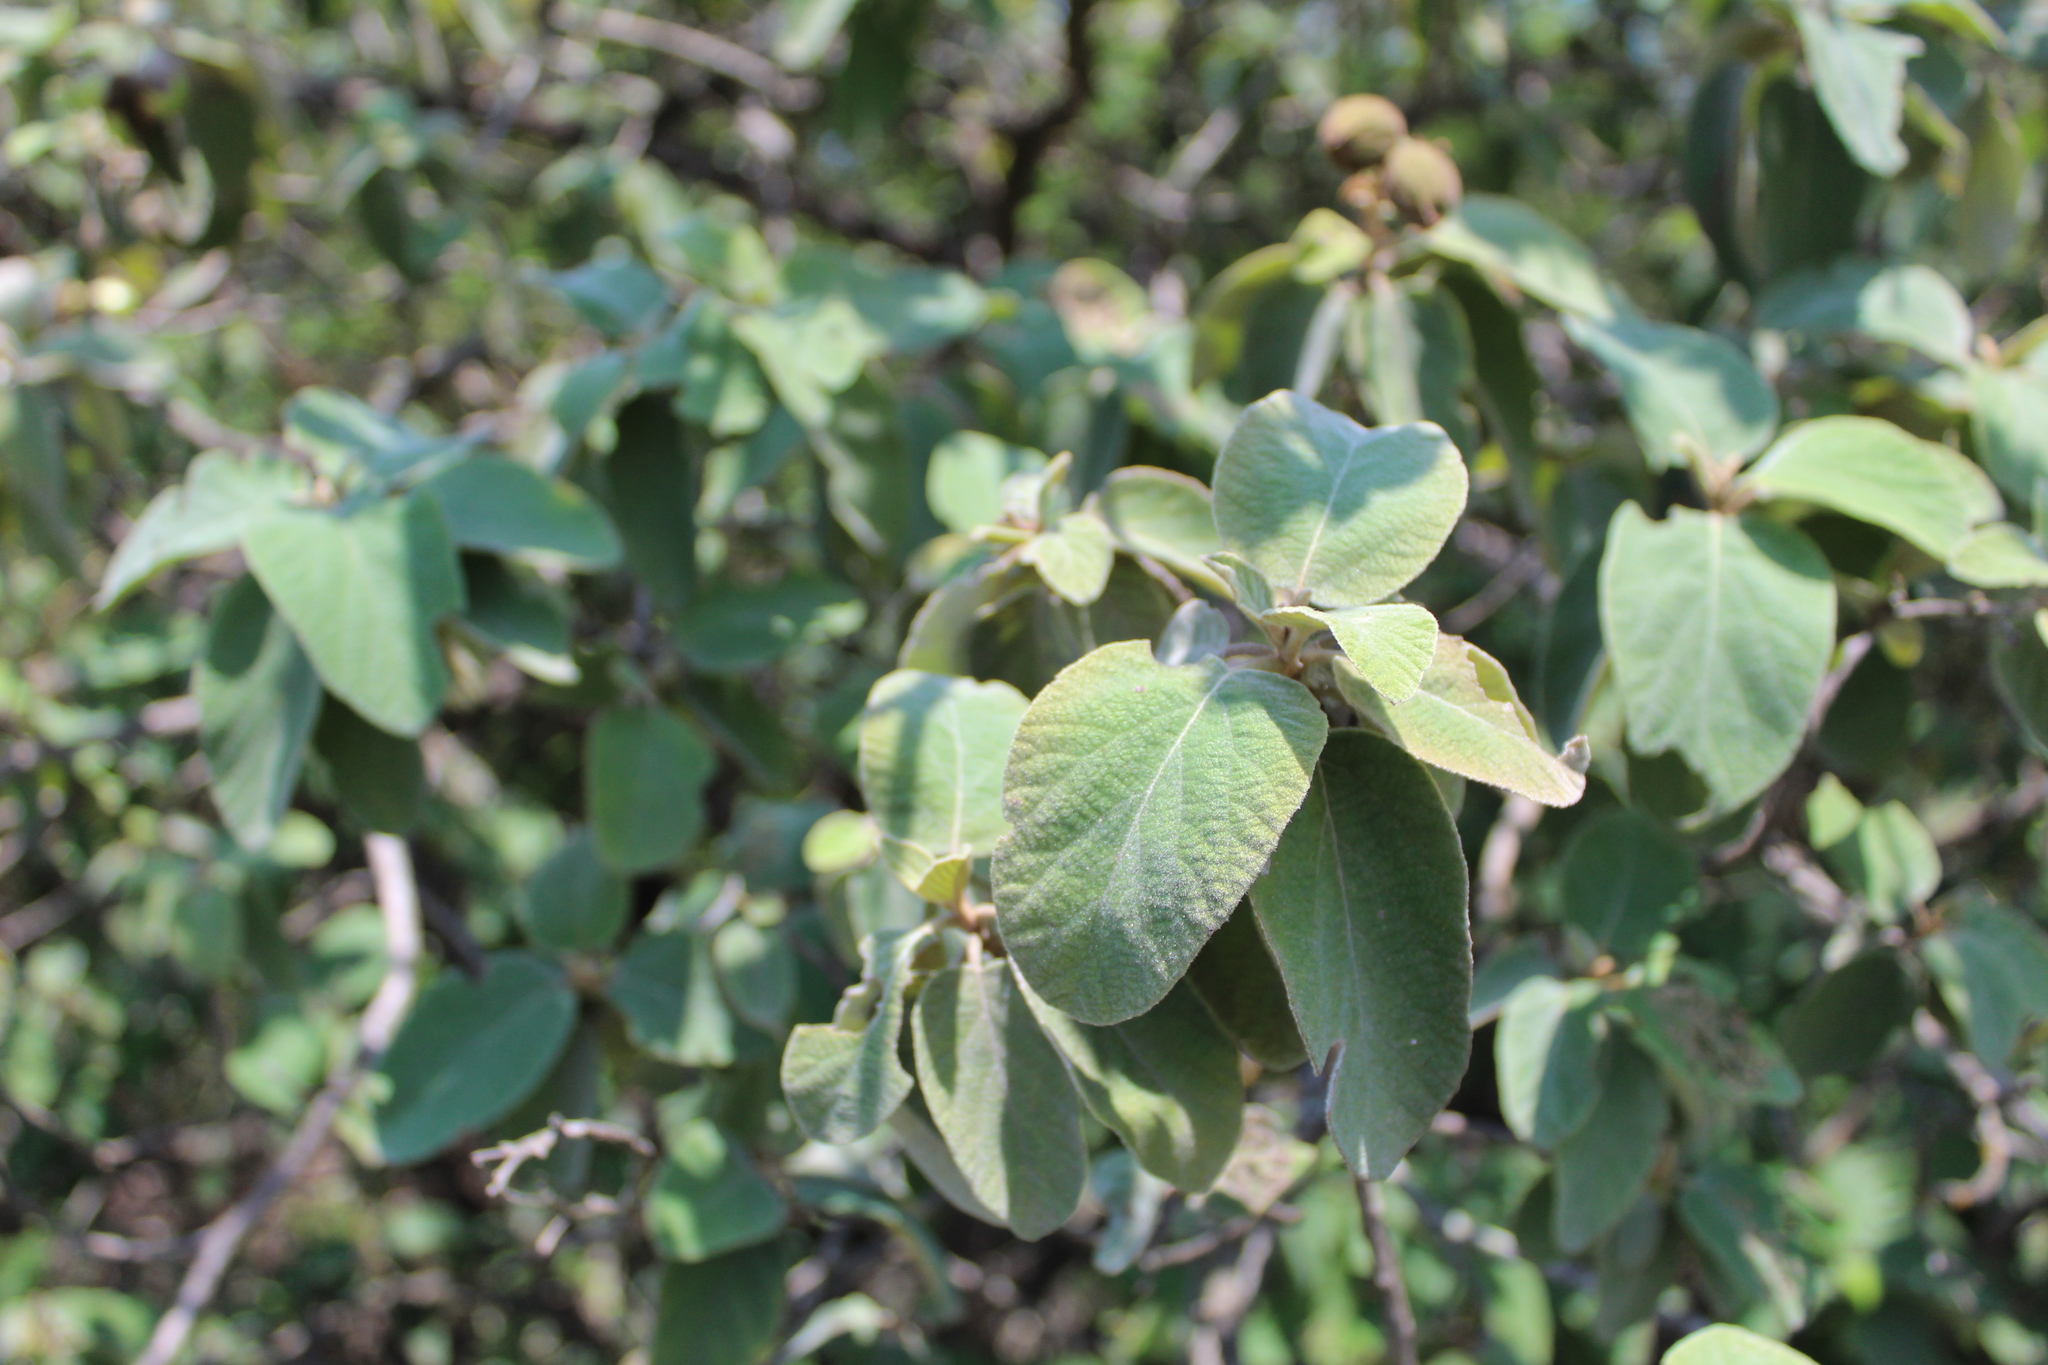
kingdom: Plantae
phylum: Tracheophyta
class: Magnoliopsida
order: Boraginales
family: Cordiaceae
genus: Cordia
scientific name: Cordia boissieri
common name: Mexican-olive
